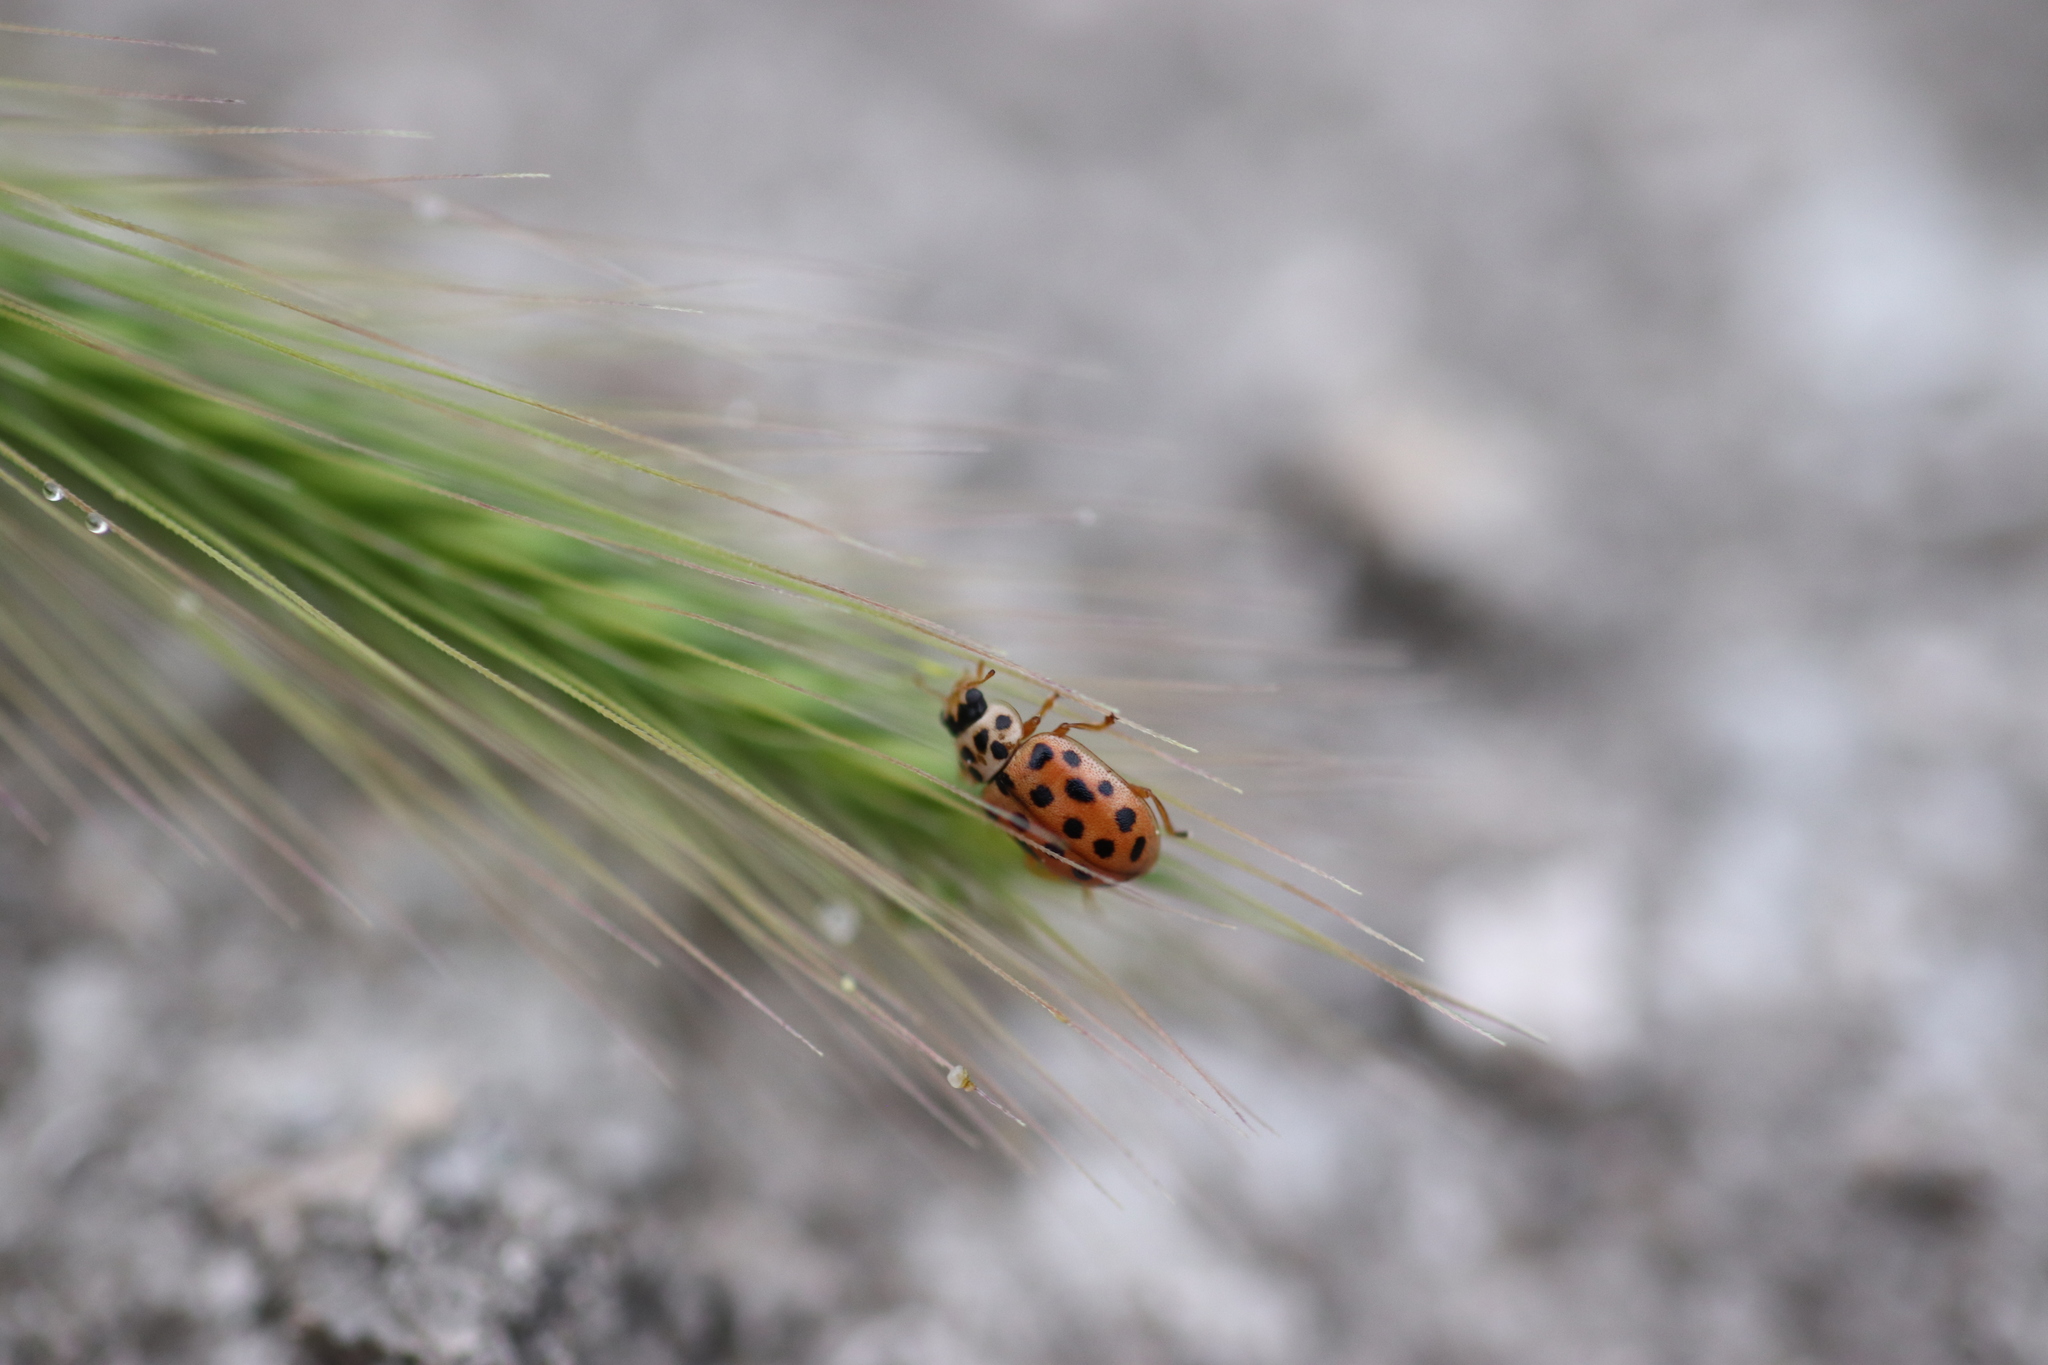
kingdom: Animalia
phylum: Arthropoda
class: Insecta
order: Coleoptera
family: Coccinellidae
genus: Anisosticta
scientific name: Anisosticta novemdecimpunctata
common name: Water ladybird
